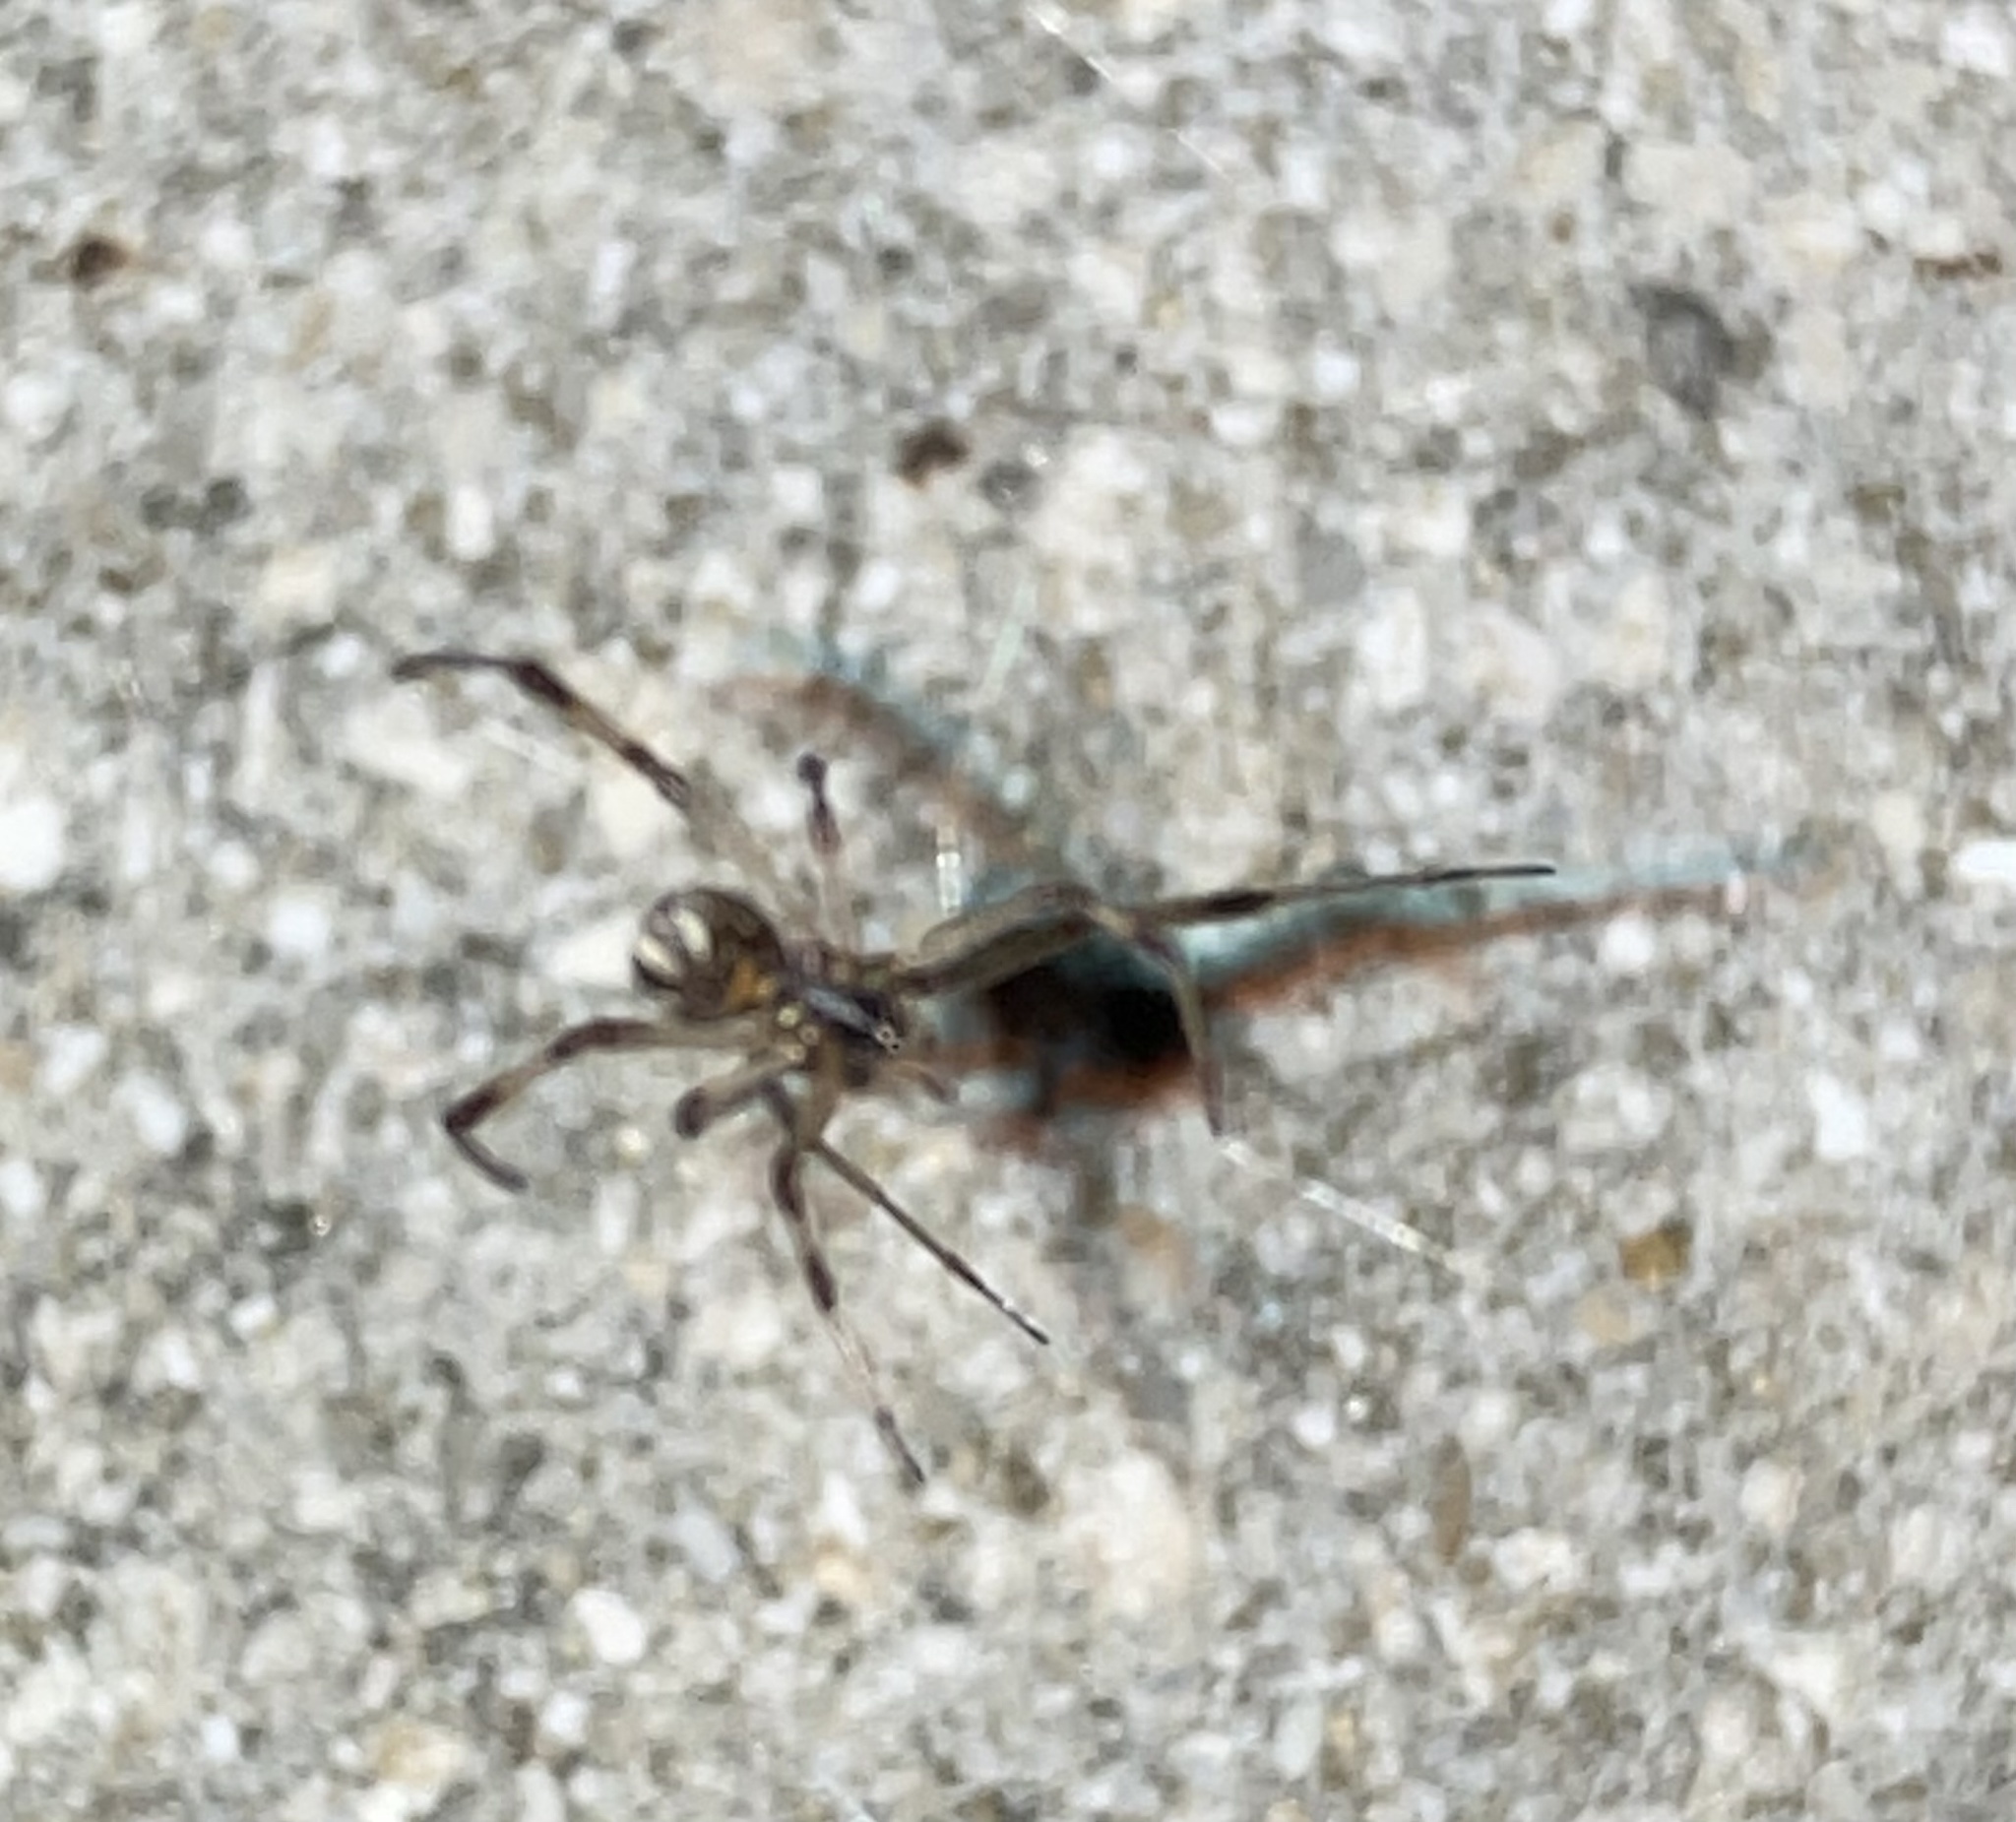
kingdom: Animalia
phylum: Arthropoda
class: Arachnida
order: Araneae
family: Theridiidae
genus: Latrodectus
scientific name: Latrodectus geometricus
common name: Brown widow spider
